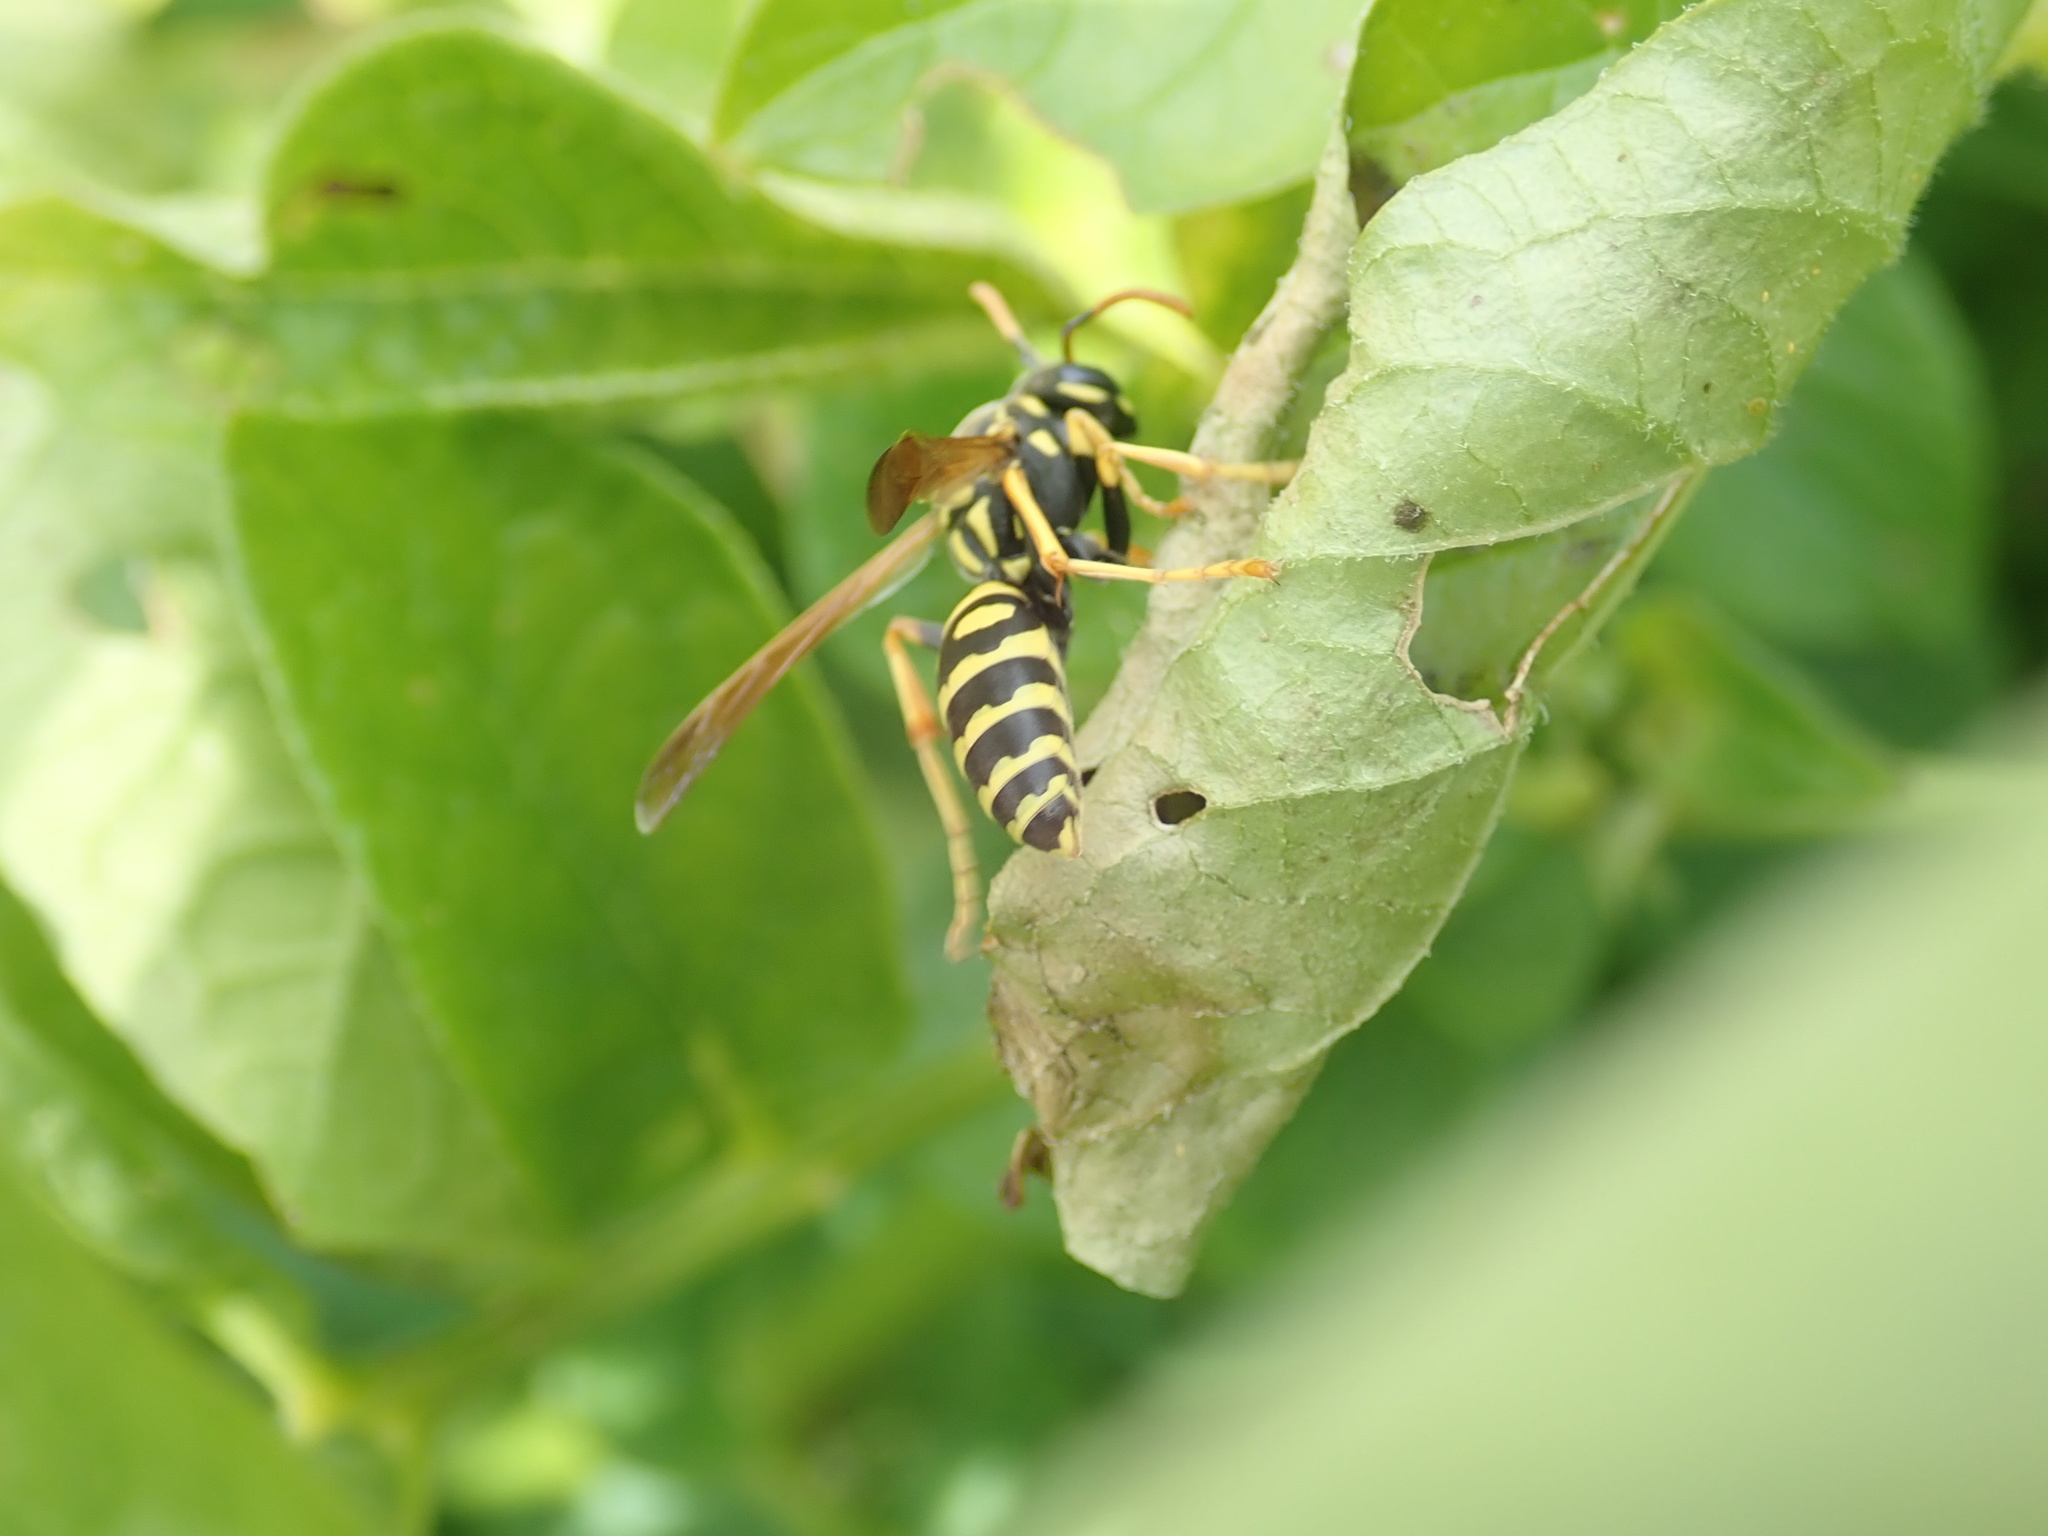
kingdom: Animalia
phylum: Arthropoda
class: Insecta
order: Hymenoptera
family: Eumenidae
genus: Polistes
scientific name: Polistes chinensis
